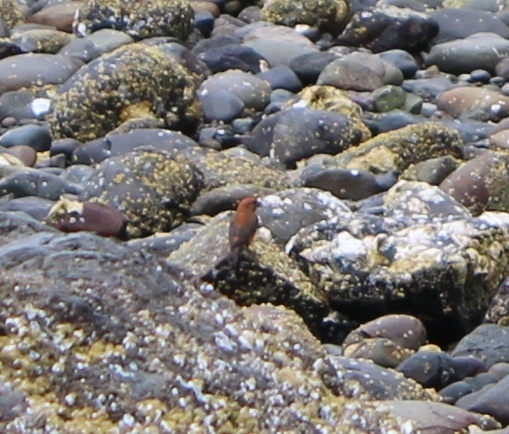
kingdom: Animalia
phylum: Chordata
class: Aves
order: Passeriformes
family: Fringillidae
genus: Loxia
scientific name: Loxia curvirostra
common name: Red crossbill
